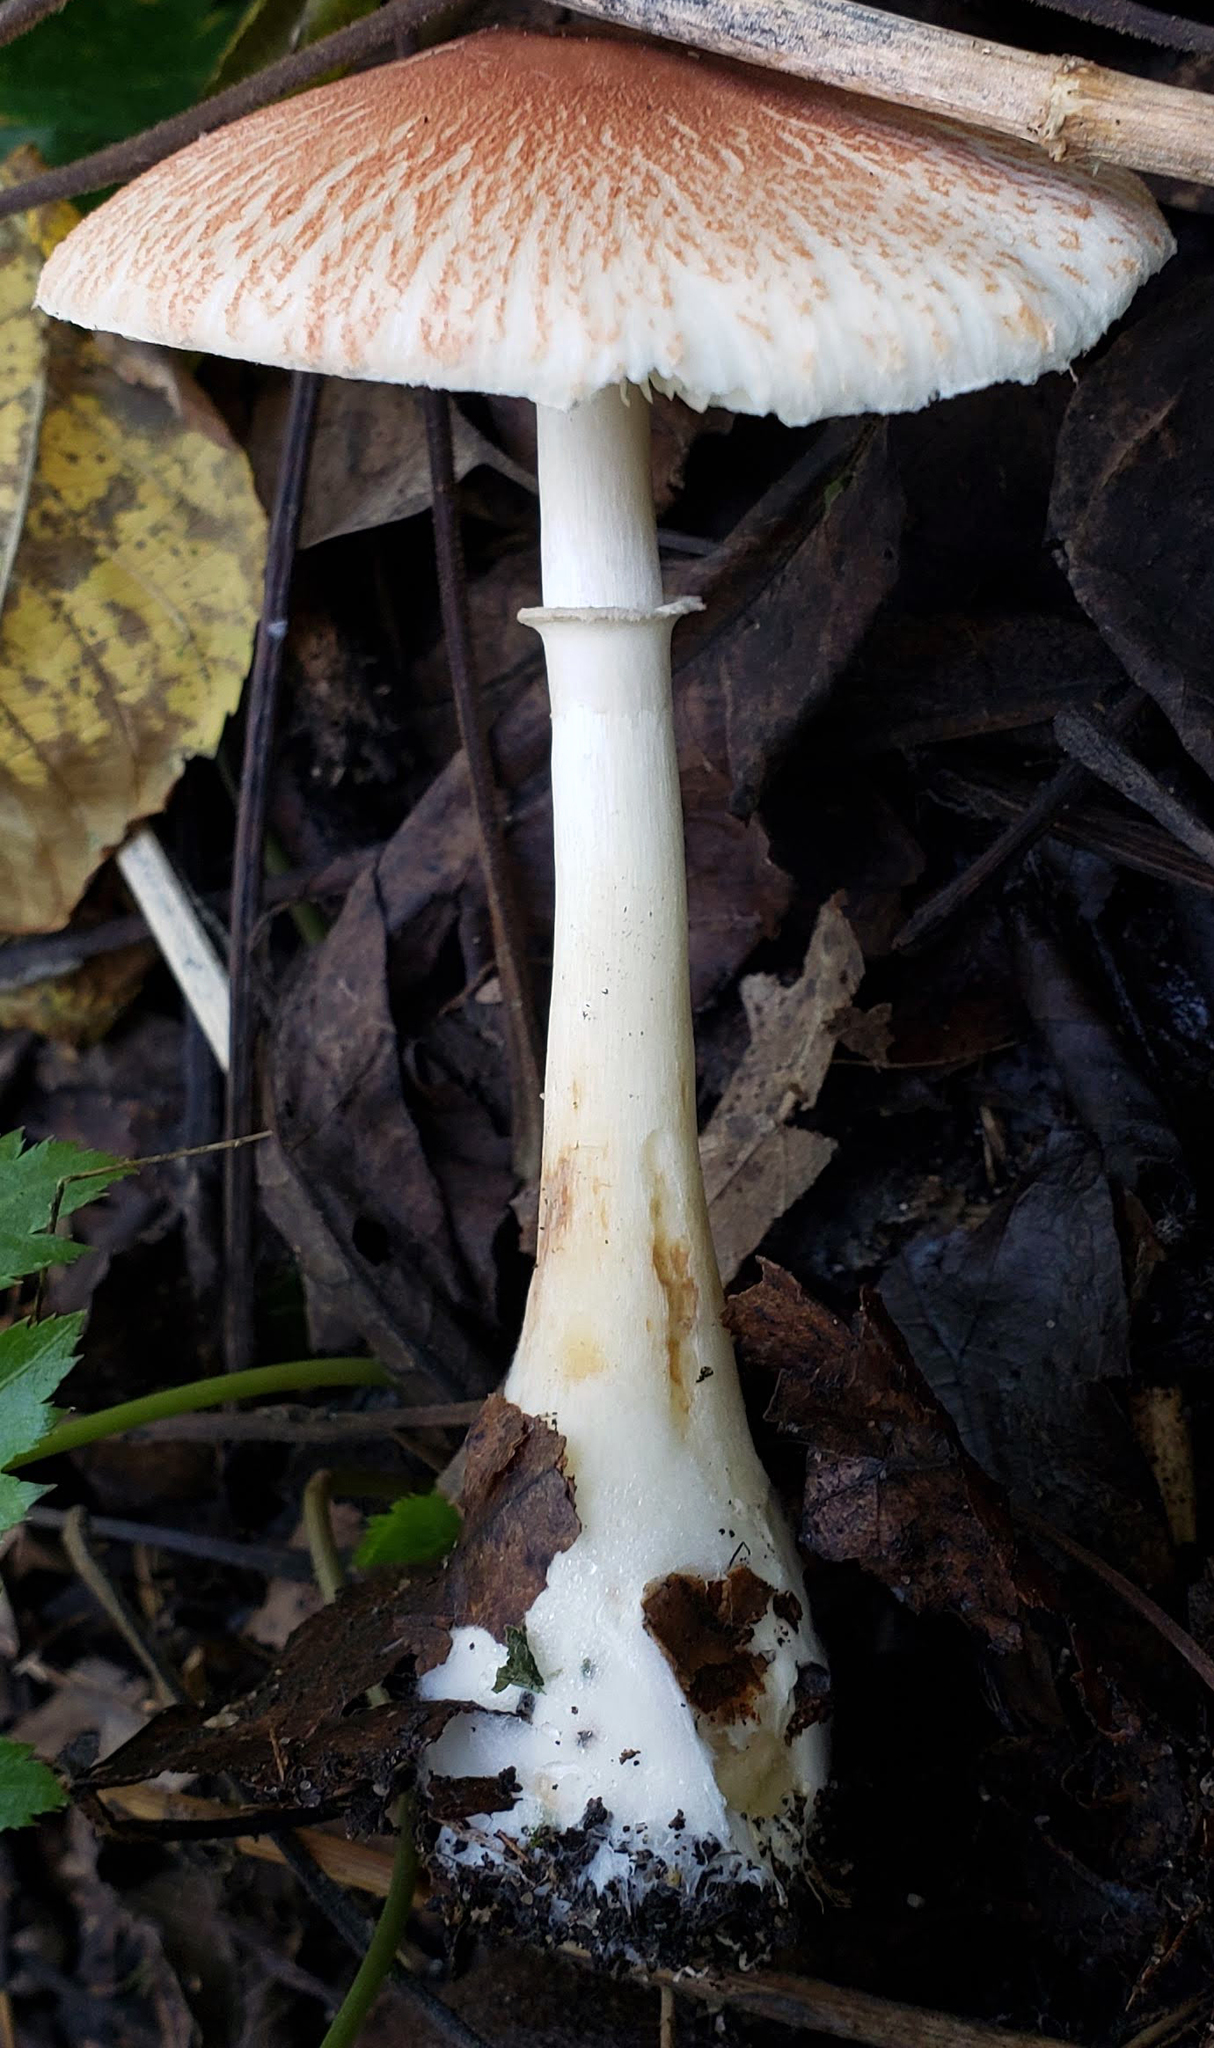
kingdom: Fungi
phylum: Basidiomycota
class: Agaricomycetes
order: Agaricales
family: Agaricaceae
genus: Leucoagaricus
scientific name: Leucoagaricus rubrotinctus
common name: Ruby dapperling
